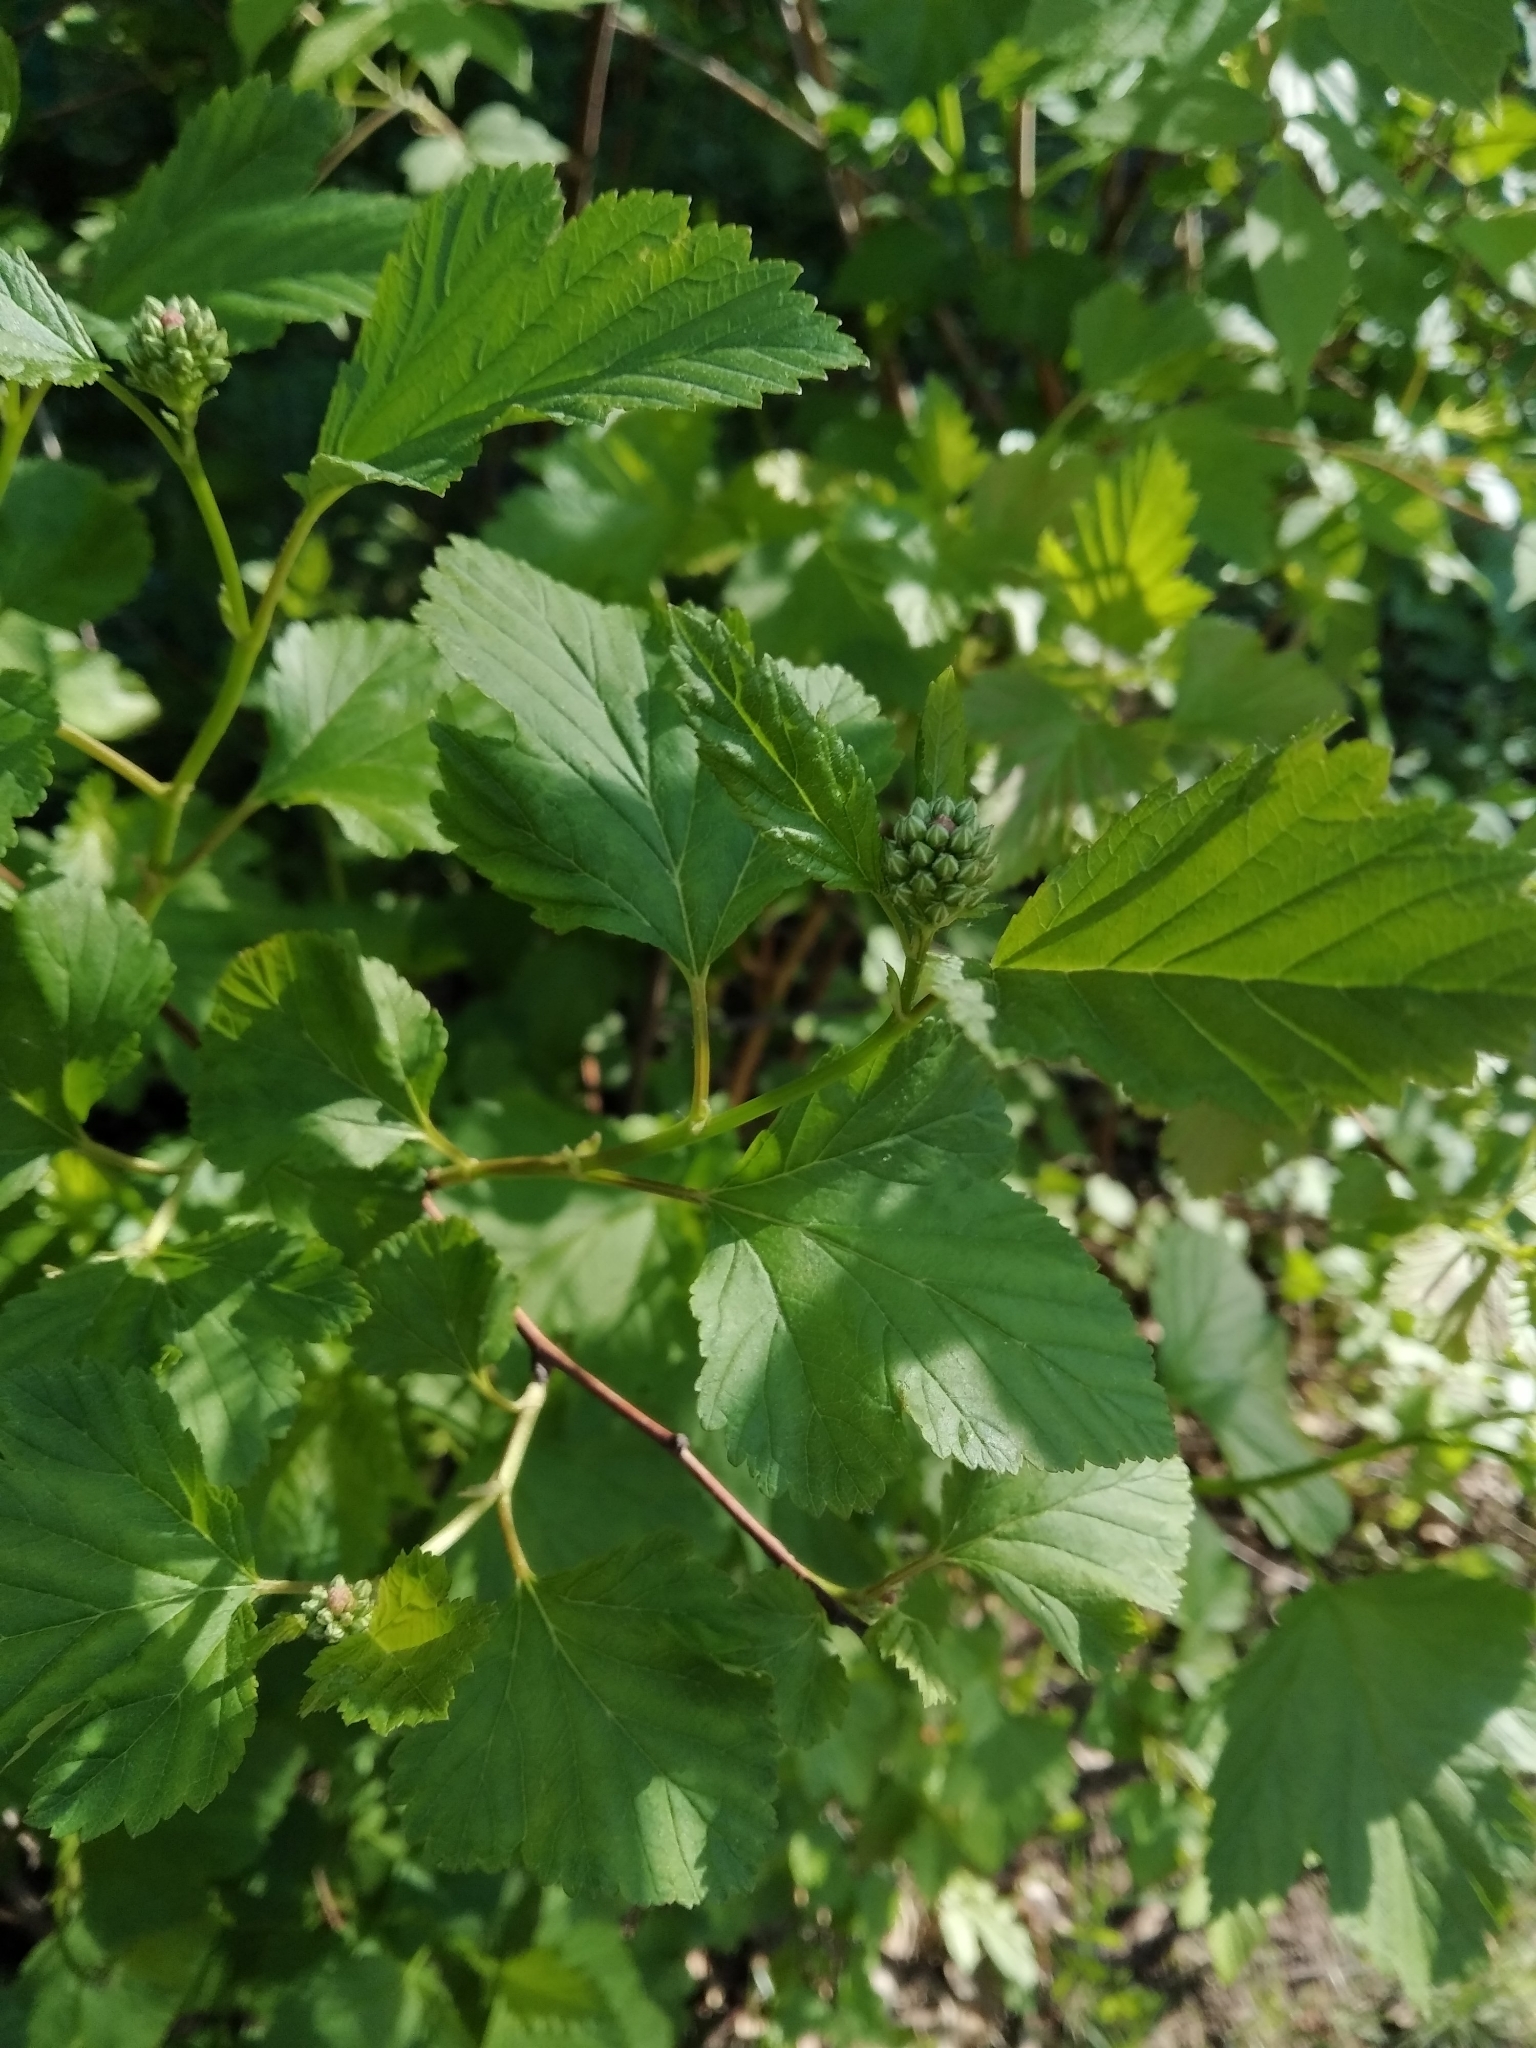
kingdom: Plantae
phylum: Tracheophyta
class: Magnoliopsida
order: Rosales
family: Rosaceae
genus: Physocarpus
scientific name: Physocarpus opulifolius
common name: Ninebark
